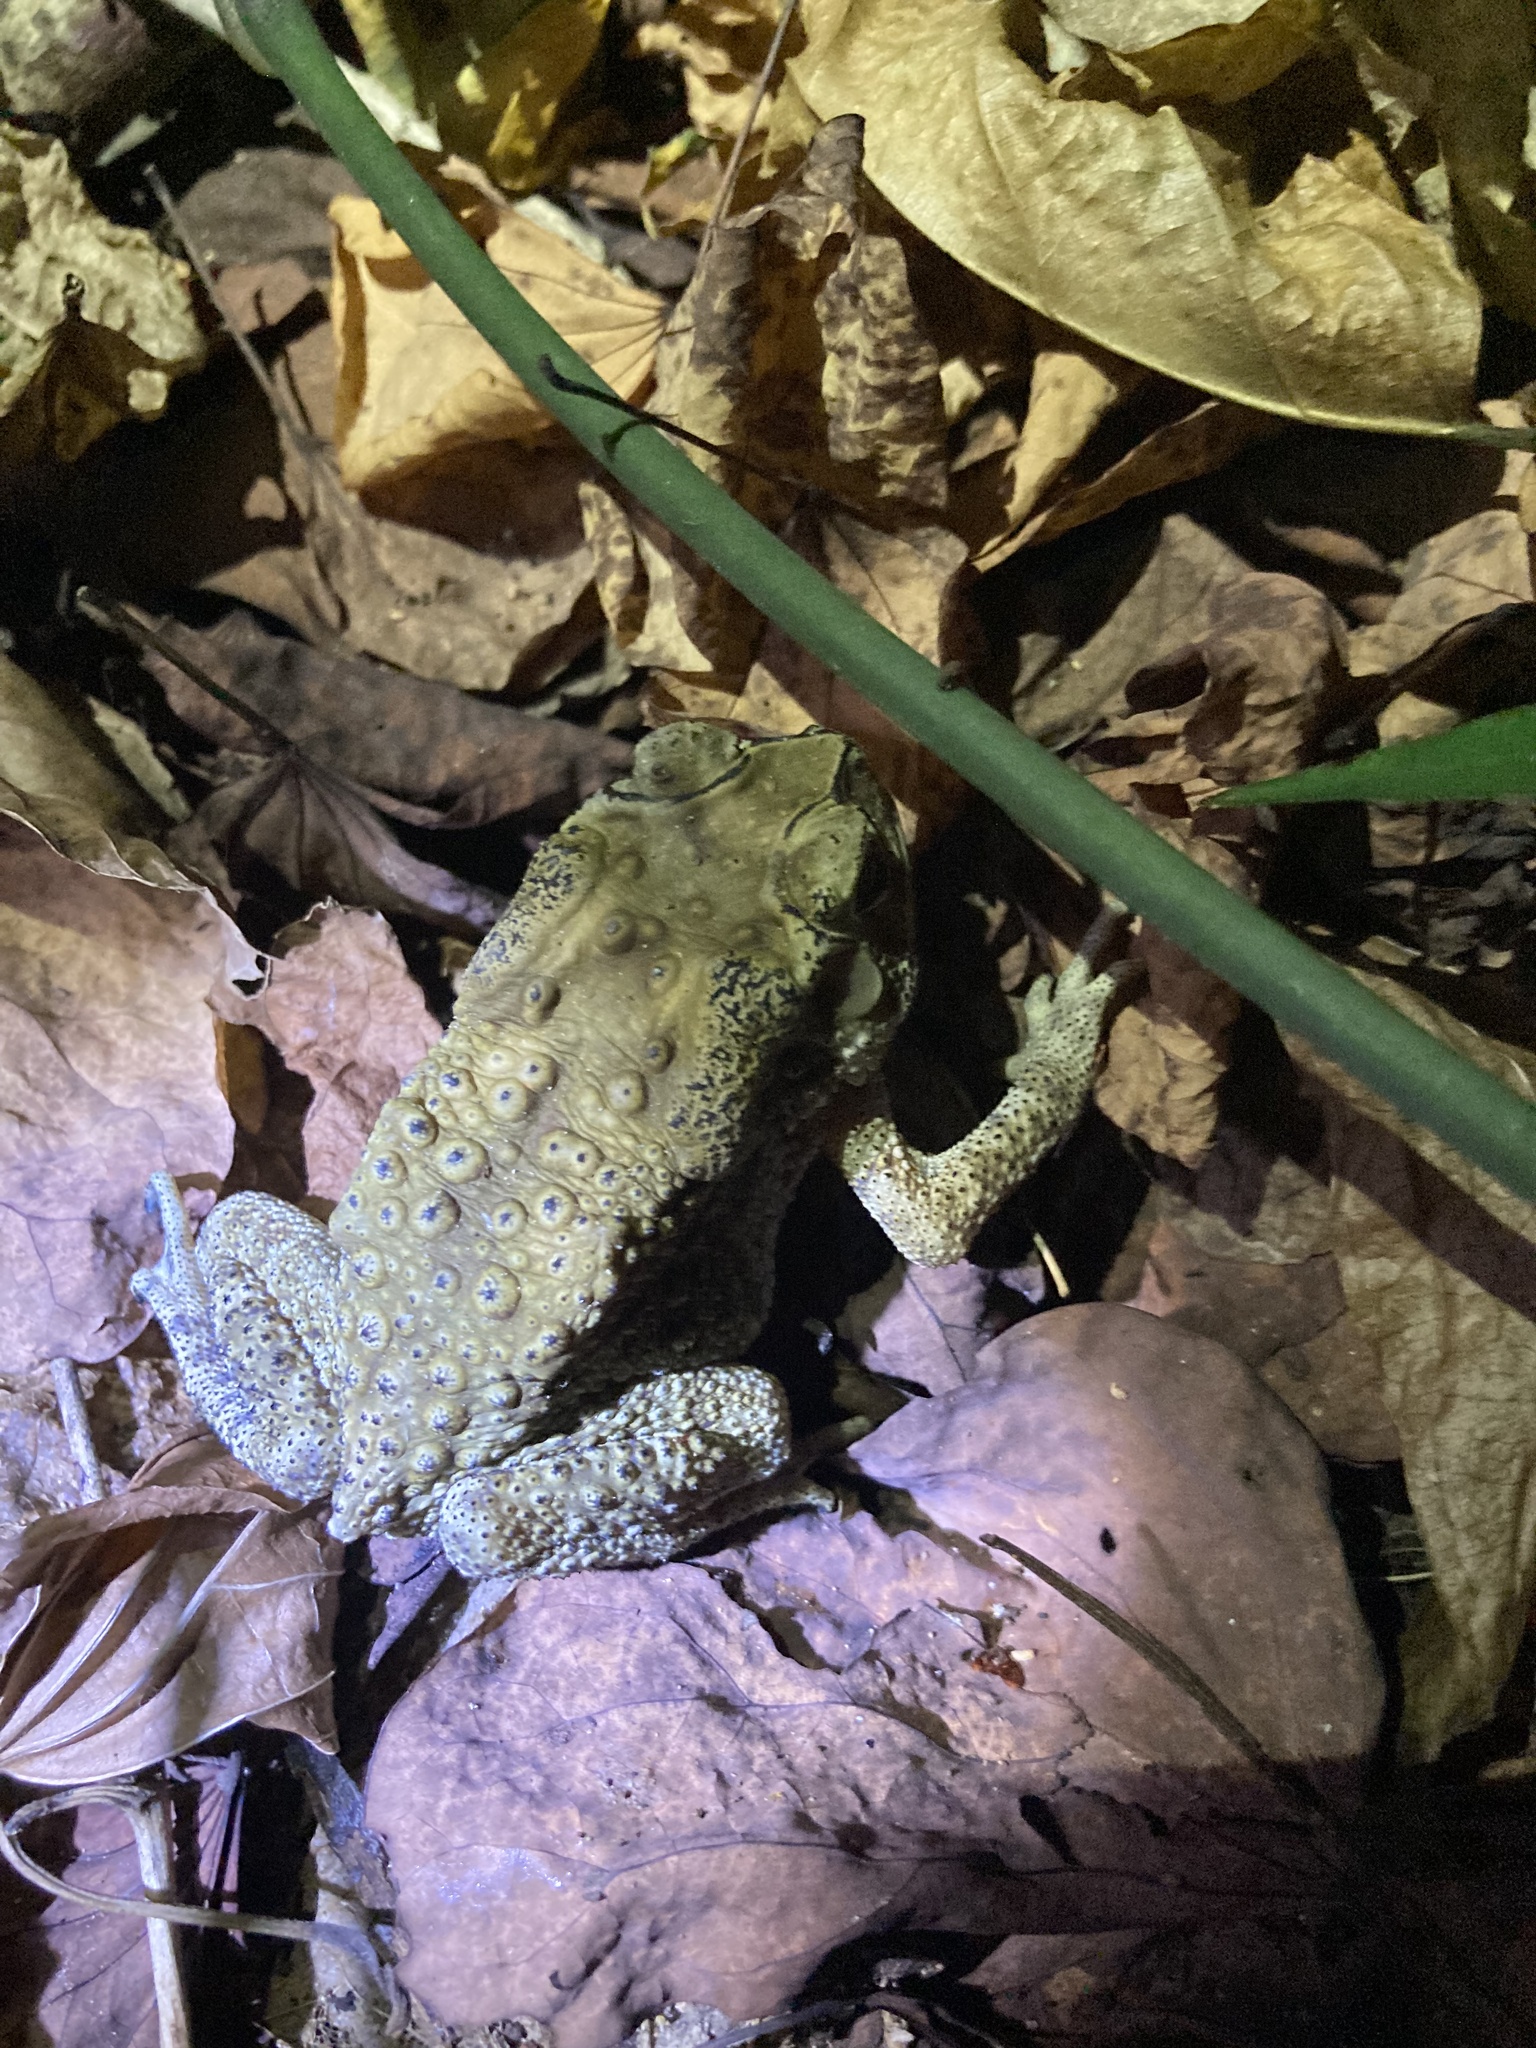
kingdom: Animalia
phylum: Chordata
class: Amphibia
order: Anura
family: Bufonidae
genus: Duttaphrynus
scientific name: Duttaphrynus melanostictus
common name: Common sunda toad
